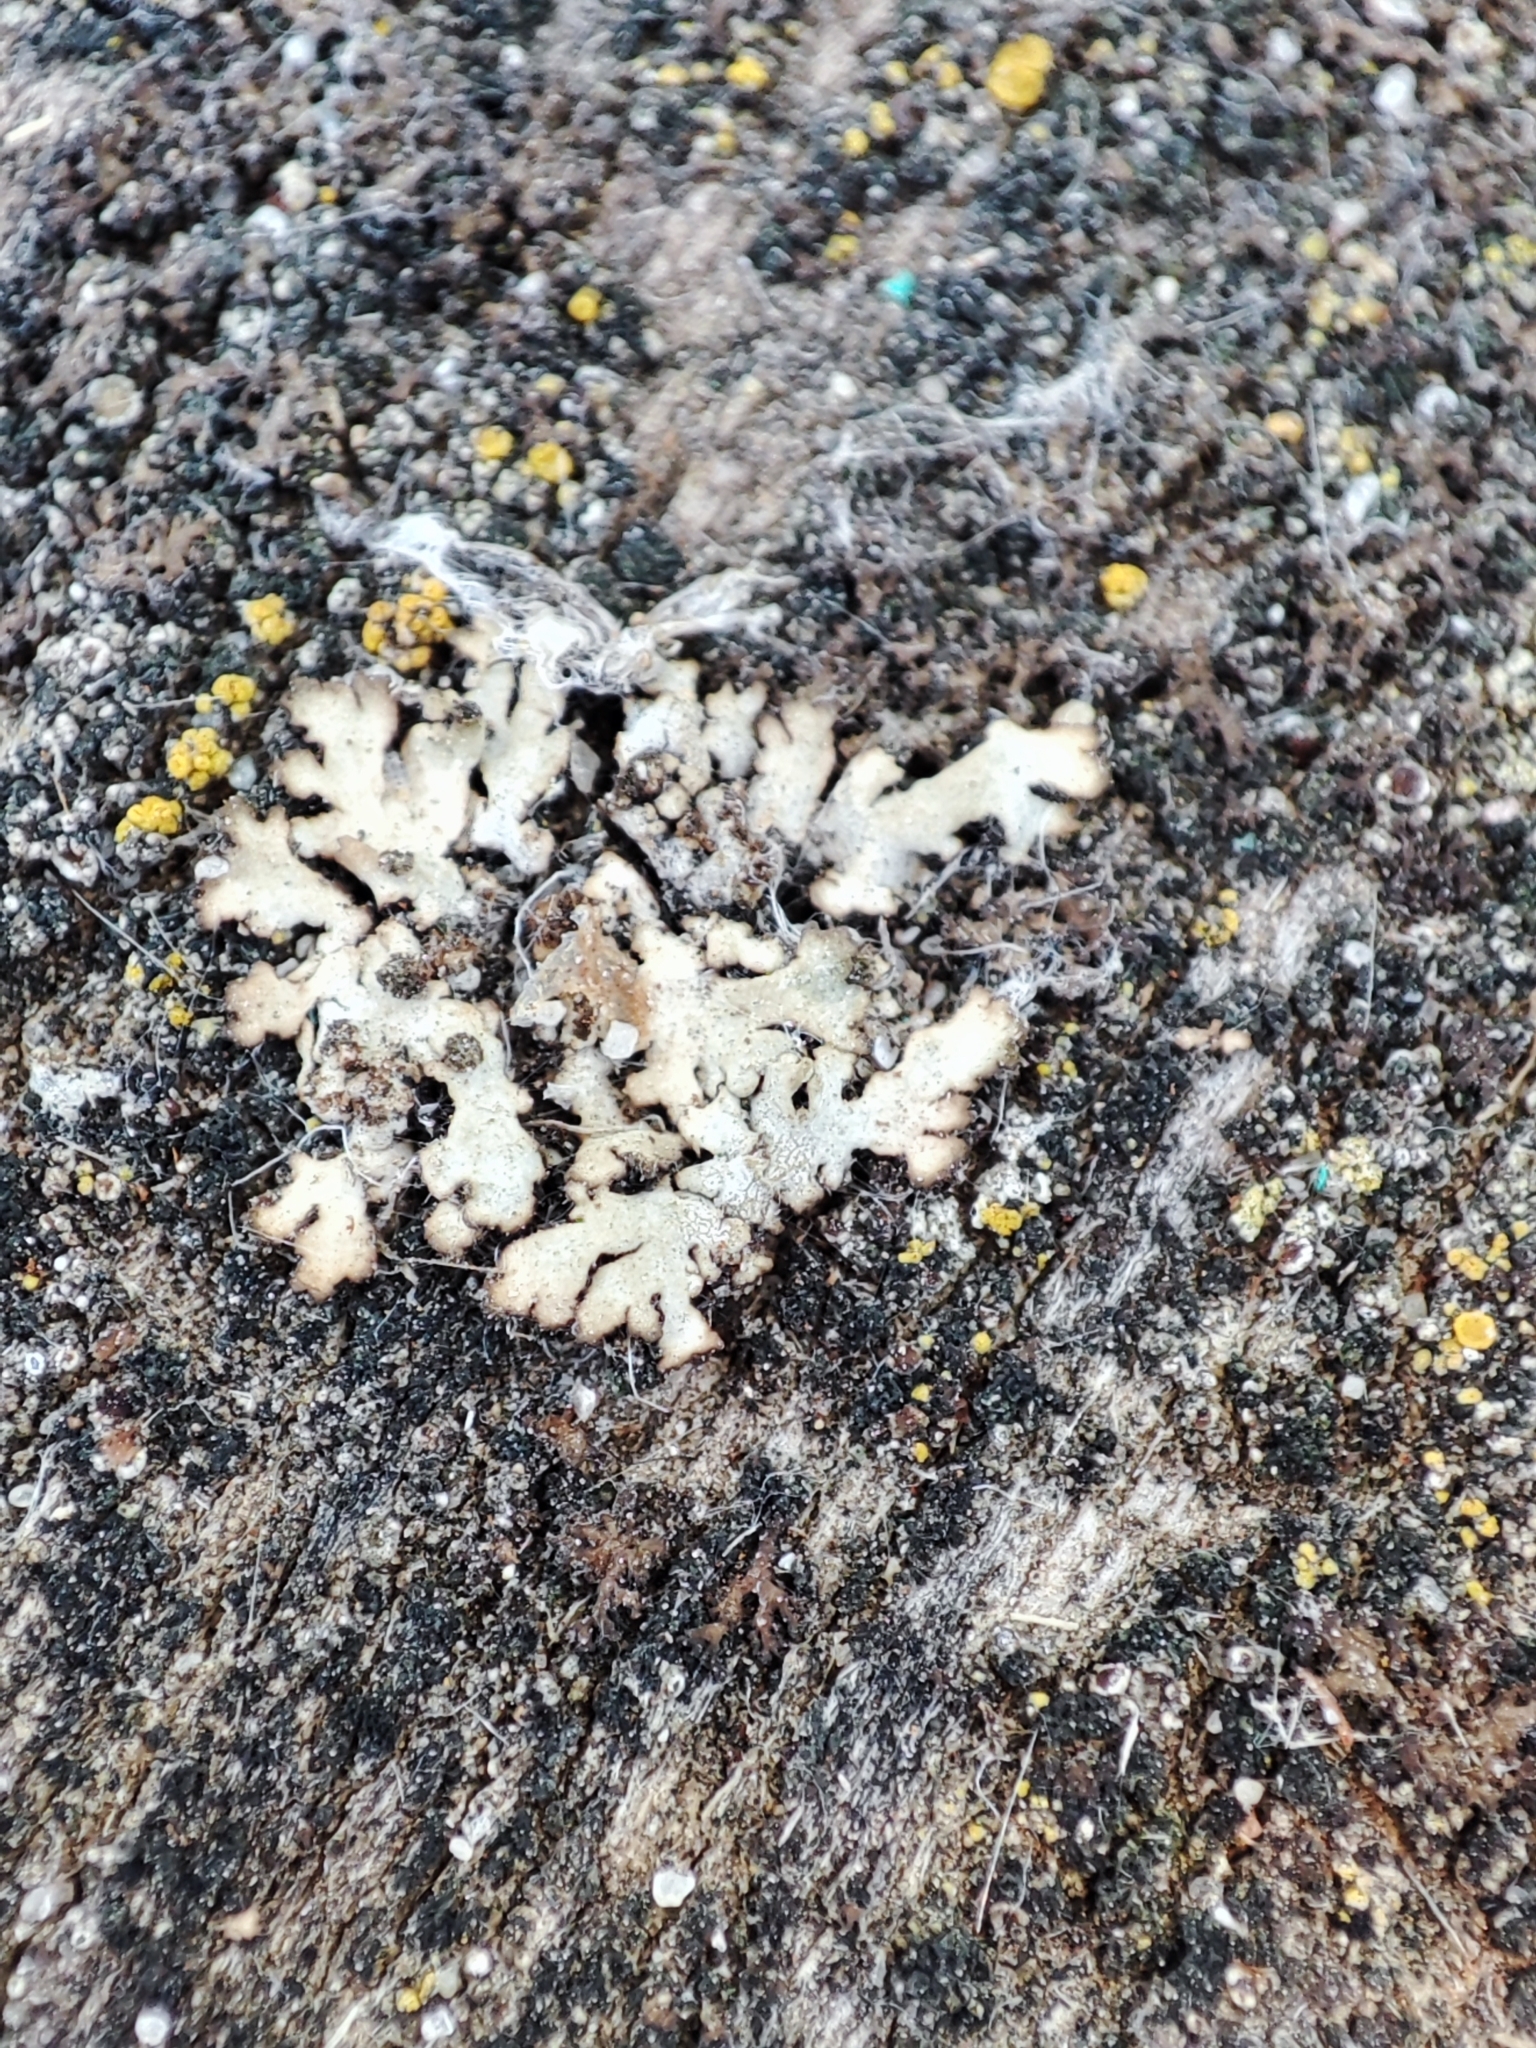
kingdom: Fungi
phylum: Ascomycota
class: Lecanoromycetes
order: Caliciales
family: Physciaceae
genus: Phaeophyscia
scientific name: Phaeophyscia orbicularis
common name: Mealy shadow lichen
